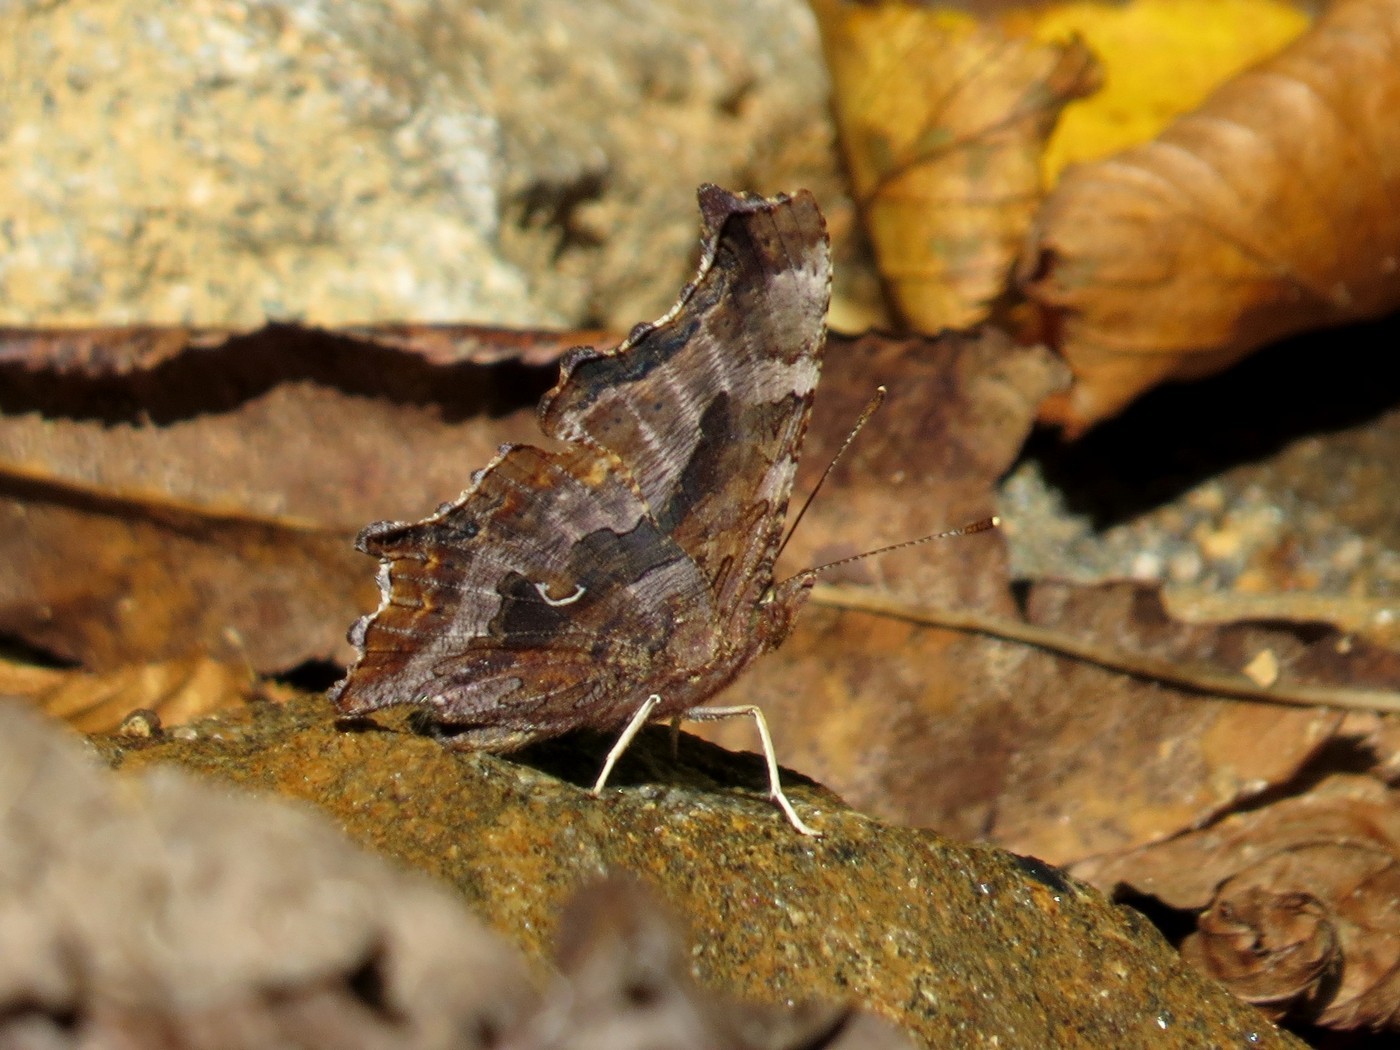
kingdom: Animalia
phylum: Arthropoda
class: Insecta
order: Lepidoptera
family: Nymphalidae
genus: Polygonia
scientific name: Polygonia comma
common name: Eastern comma
